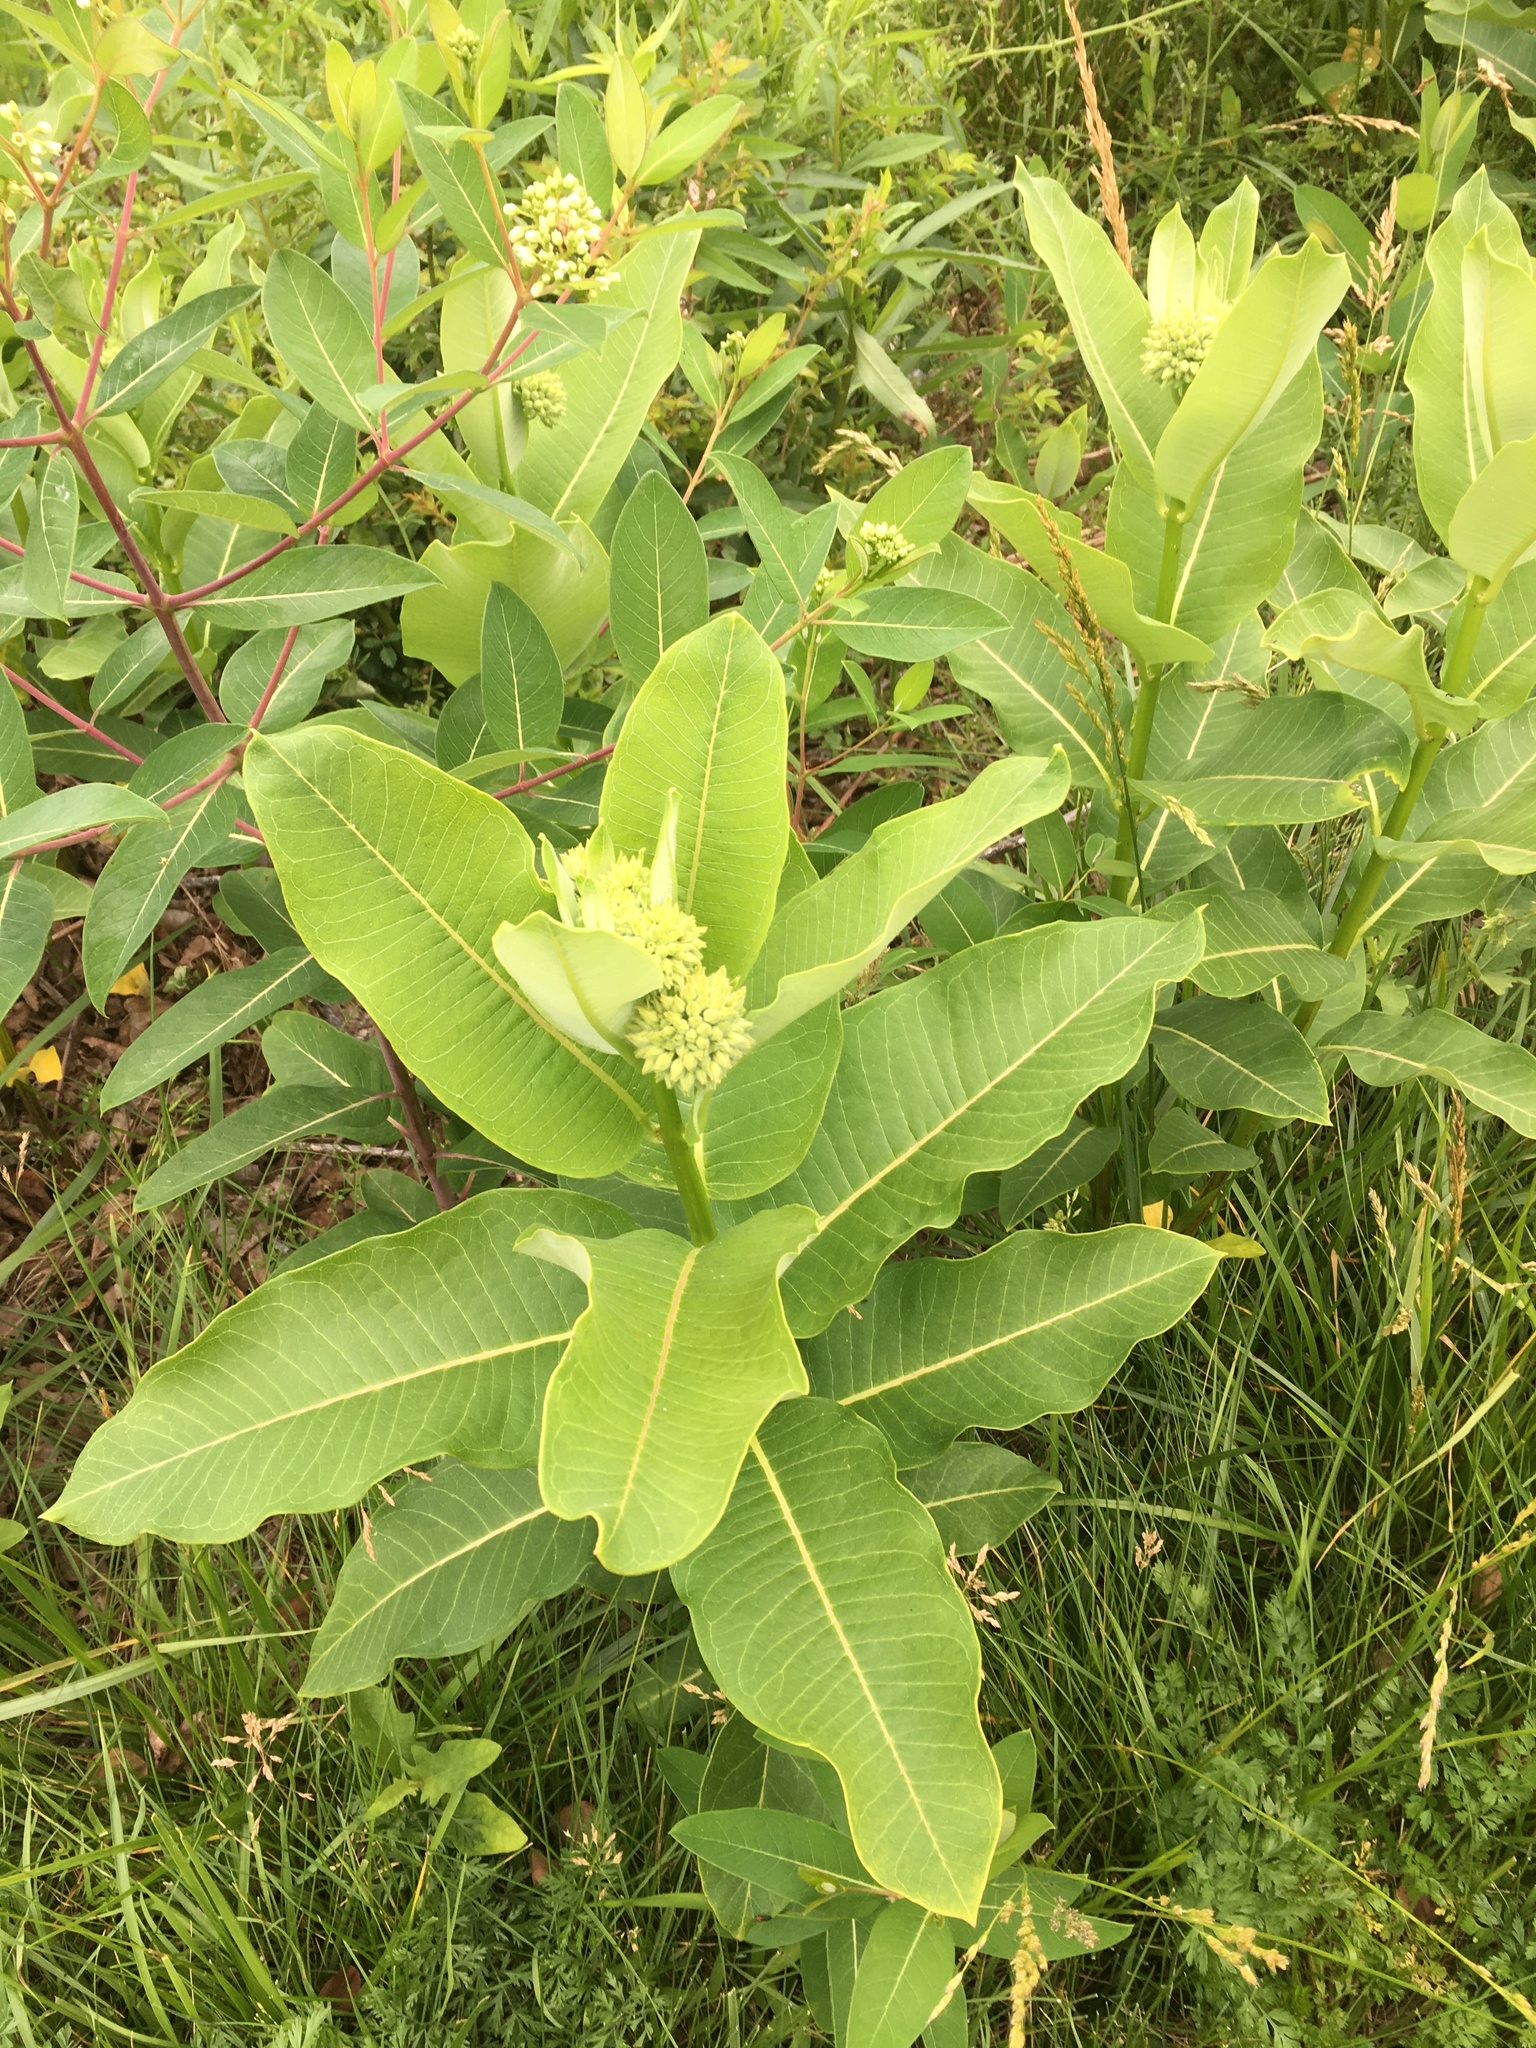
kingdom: Plantae
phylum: Tracheophyta
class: Magnoliopsida
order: Gentianales
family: Apocynaceae
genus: Asclepias
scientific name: Asclepias syriaca
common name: Common milkweed
